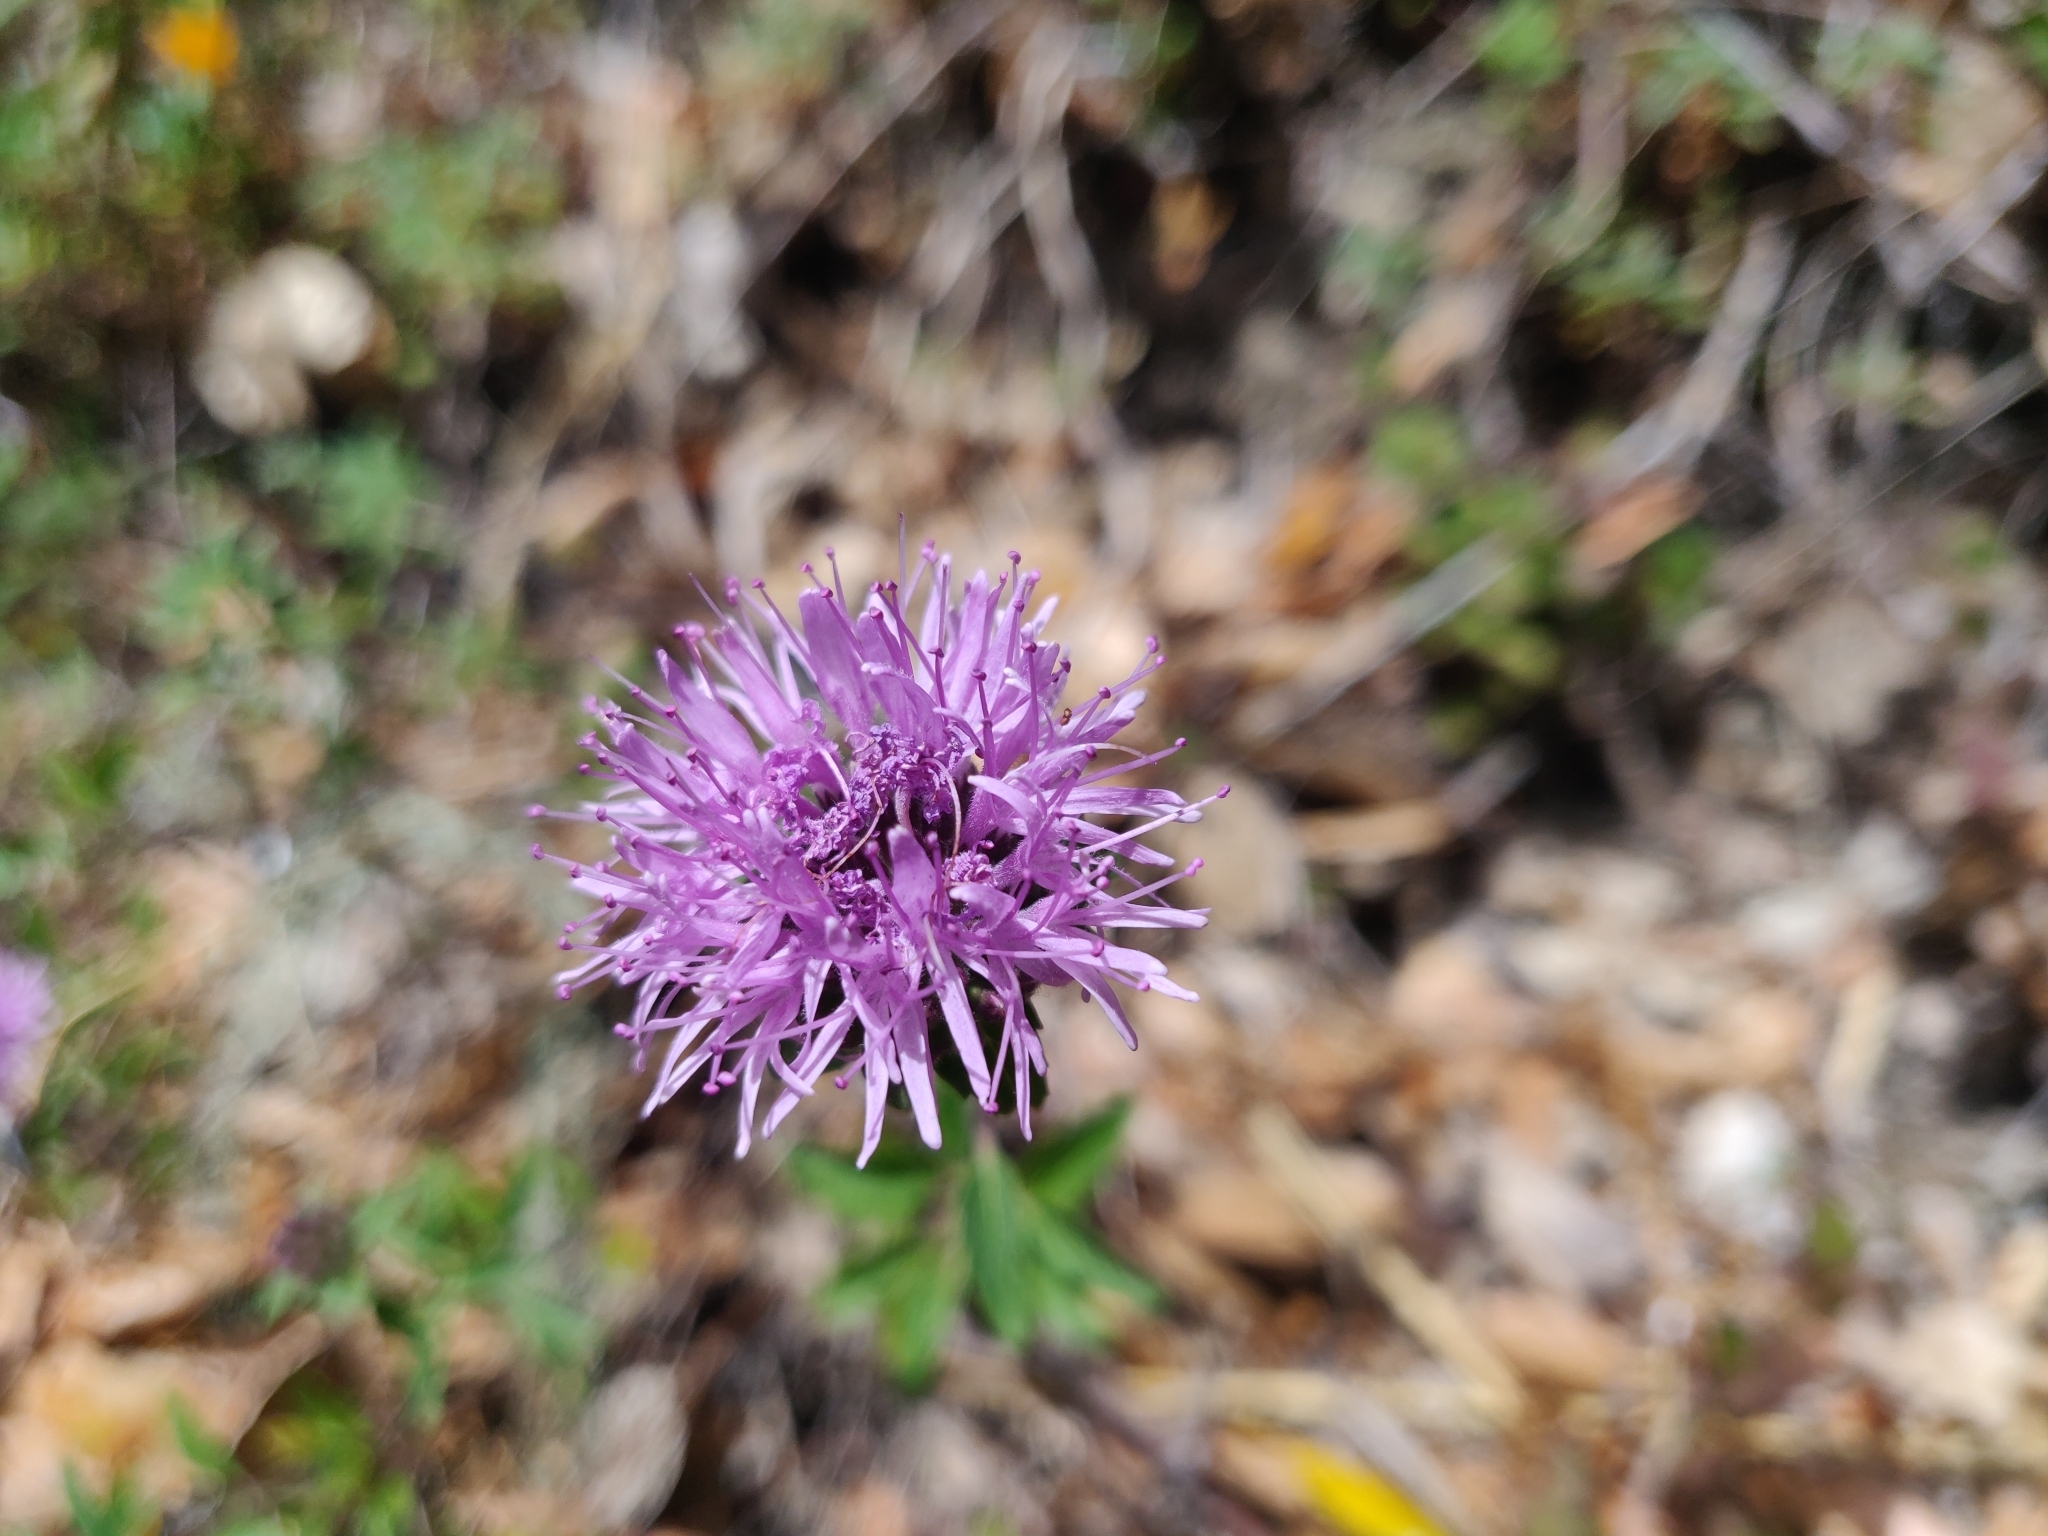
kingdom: Plantae
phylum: Tracheophyta
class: Magnoliopsida
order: Lamiales
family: Lamiaceae
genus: Monardella
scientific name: Monardella odoratissima
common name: Pacific monardella
